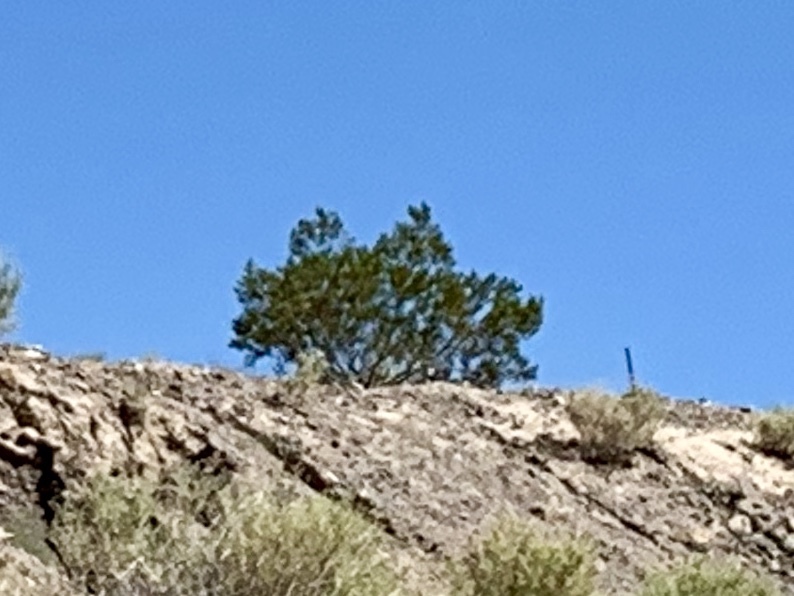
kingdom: Plantae
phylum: Tracheophyta
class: Magnoliopsida
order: Zygophyllales
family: Zygophyllaceae
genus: Larrea
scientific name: Larrea tridentata
